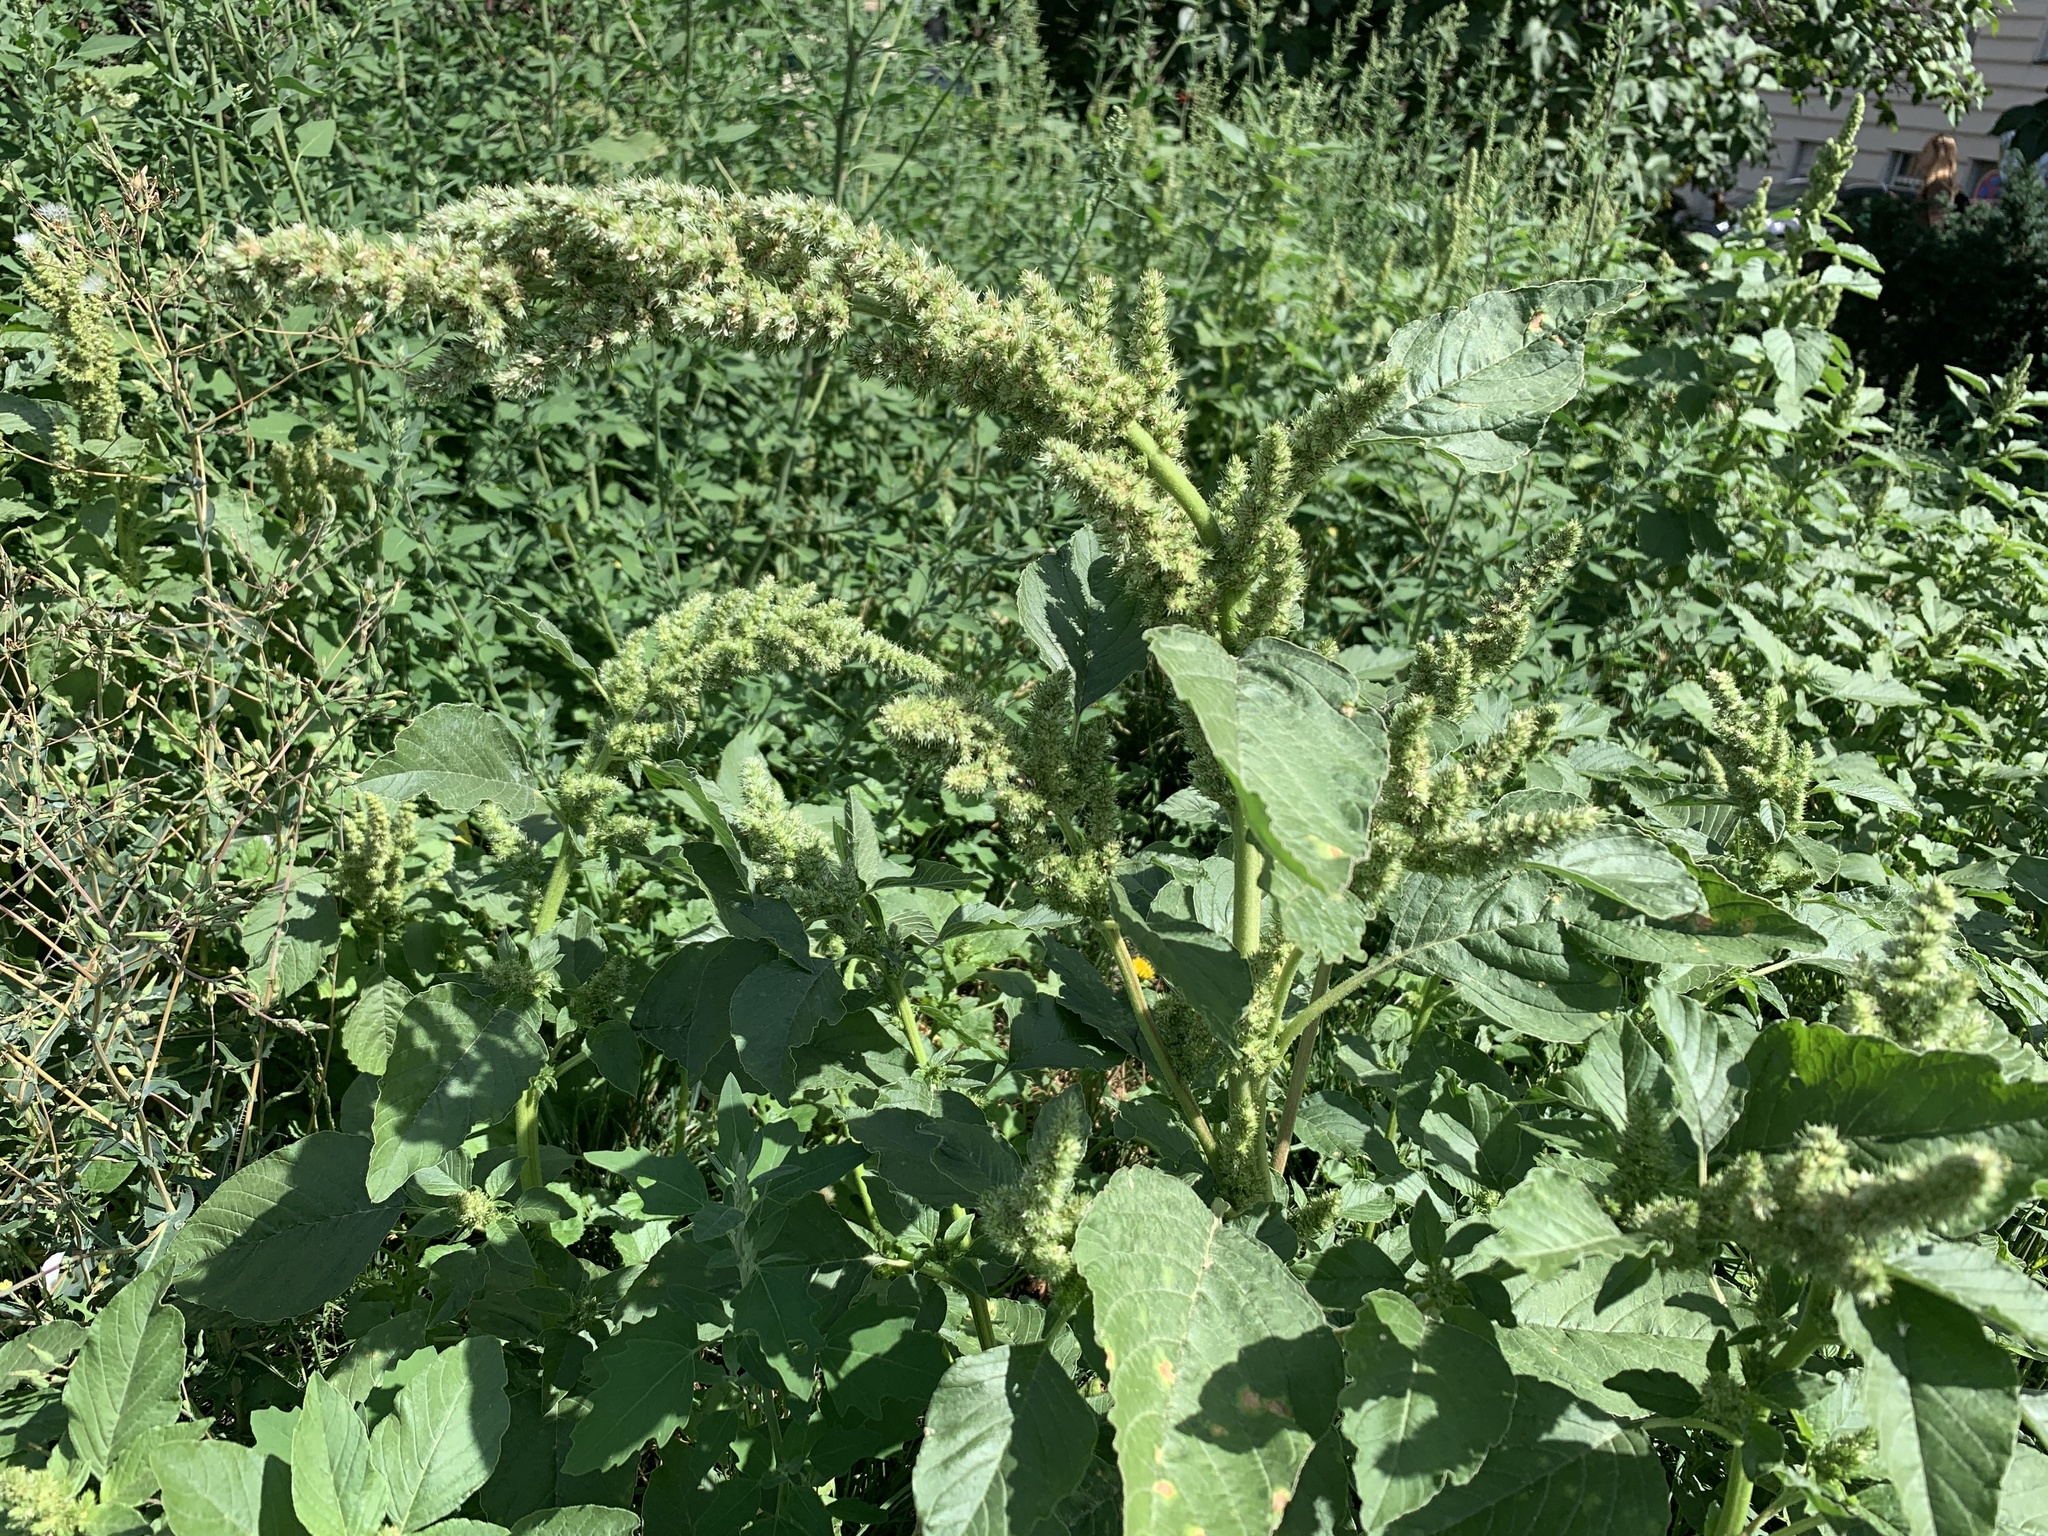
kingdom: Plantae
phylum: Tracheophyta
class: Magnoliopsida
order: Caryophyllales
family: Amaranthaceae
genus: Amaranthus
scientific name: Amaranthus retroflexus
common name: Redroot amaranth
